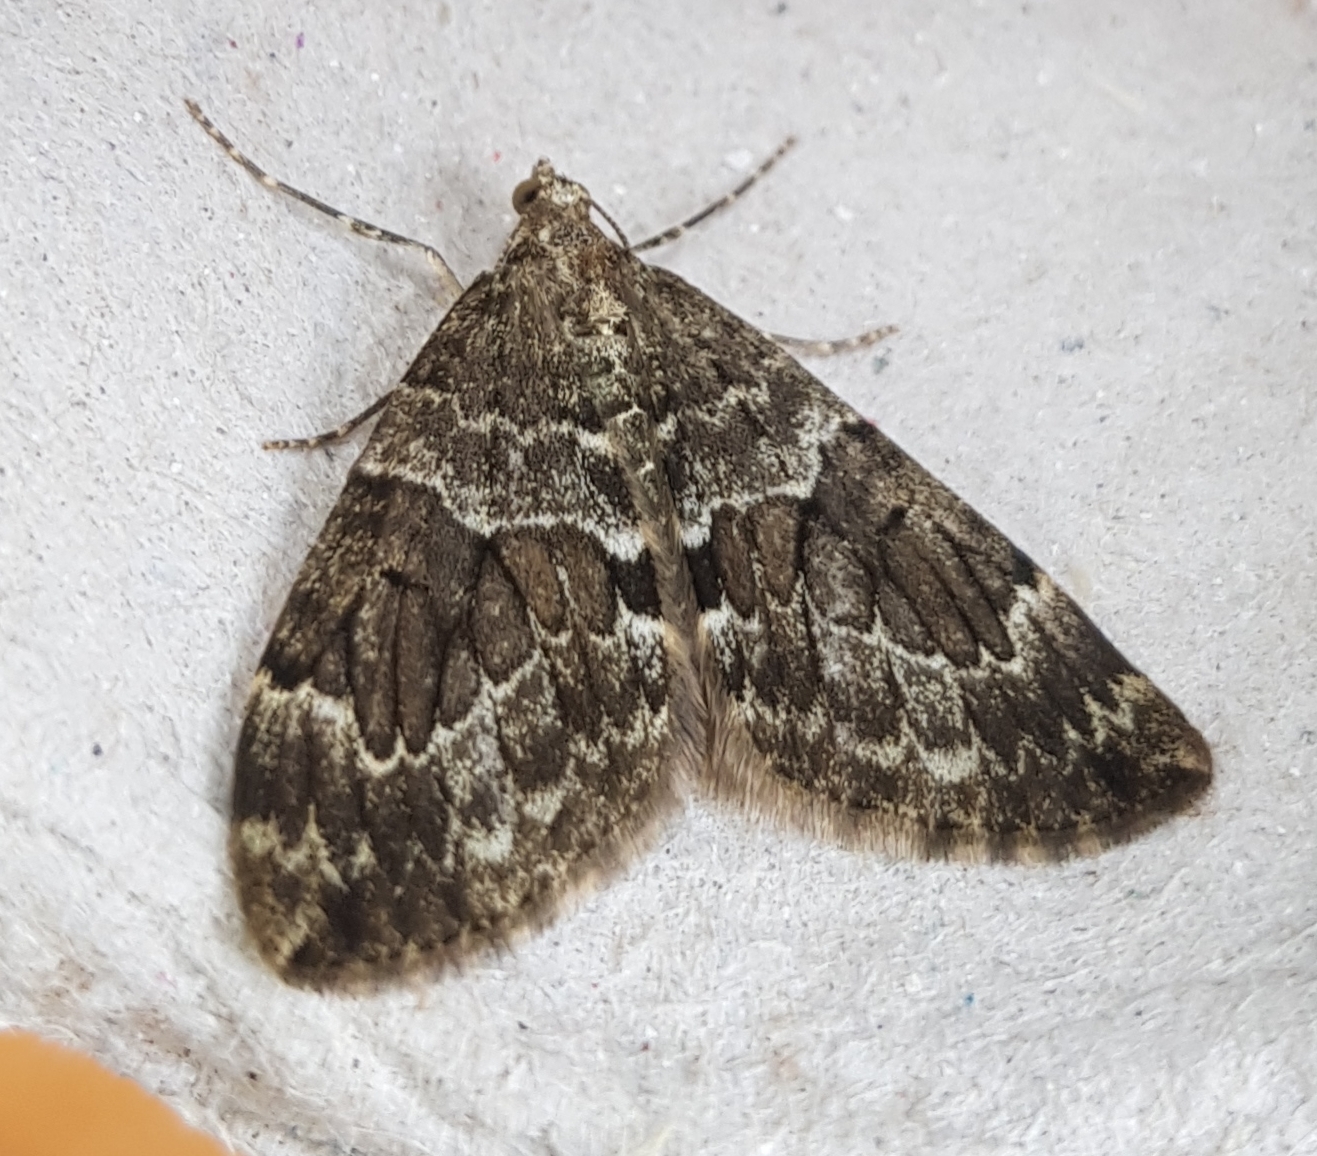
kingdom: Animalia
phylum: Arthropoda
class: Insecta
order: Lepidoptera
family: Geometridae
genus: Thera
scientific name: Thera britannica
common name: Spruce carpet
